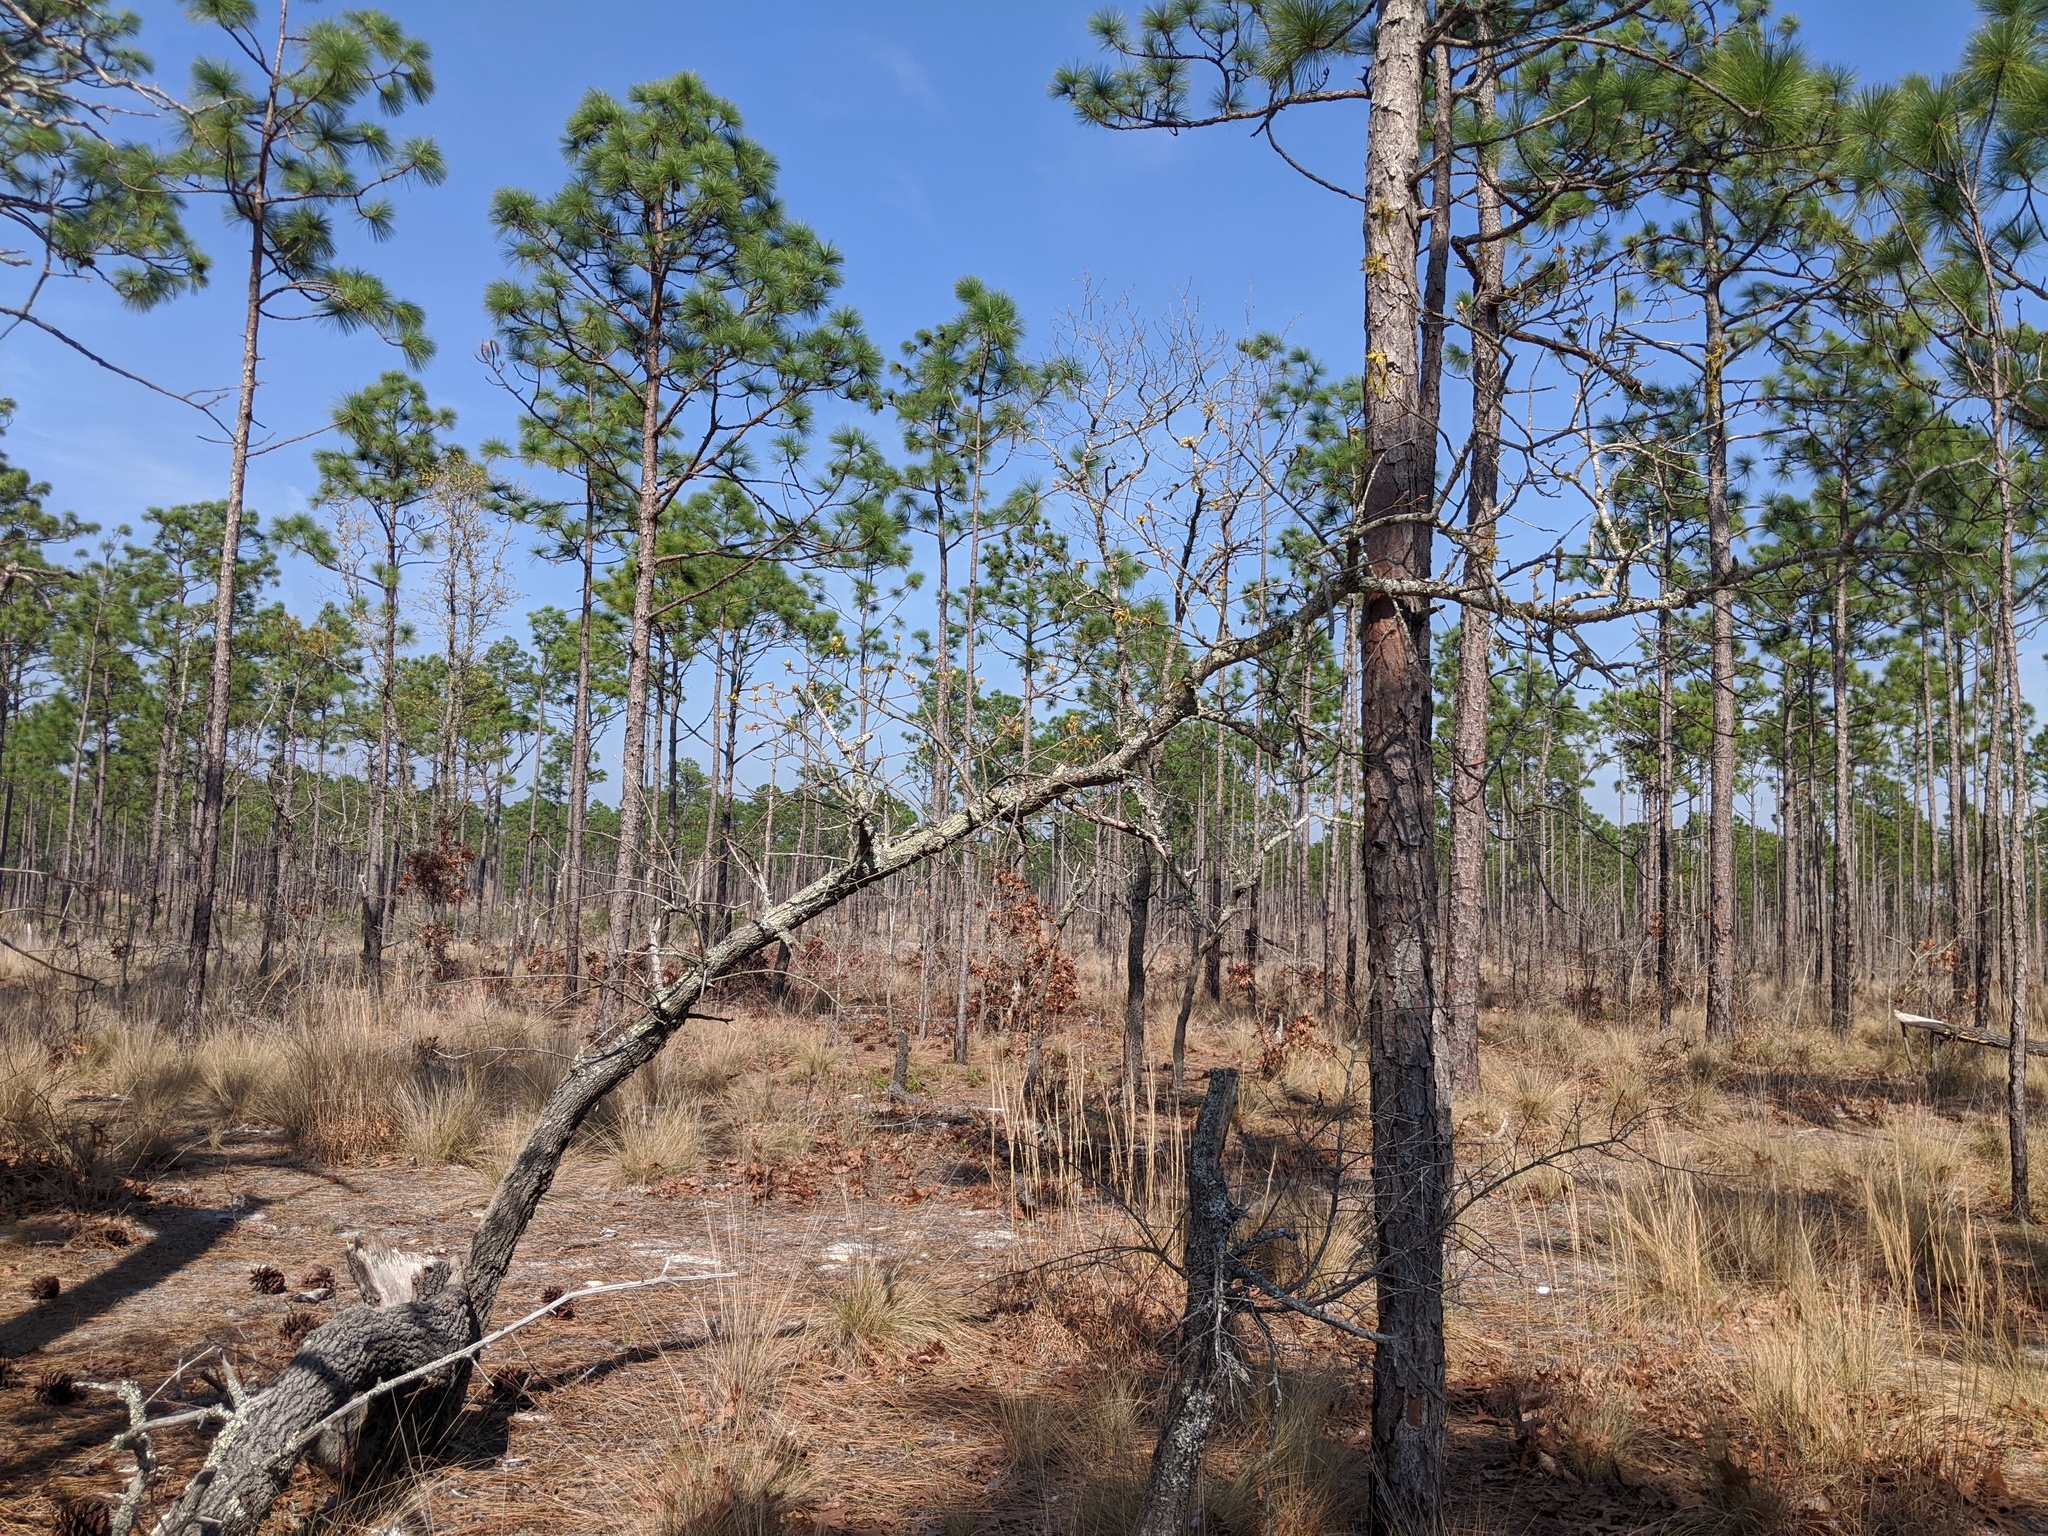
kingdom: Plantae
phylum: Tracheophyta
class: Magnoliopsida
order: Fagales
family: Fagaceae
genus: Quercus
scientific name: Quercus laevis
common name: Turkey oak
